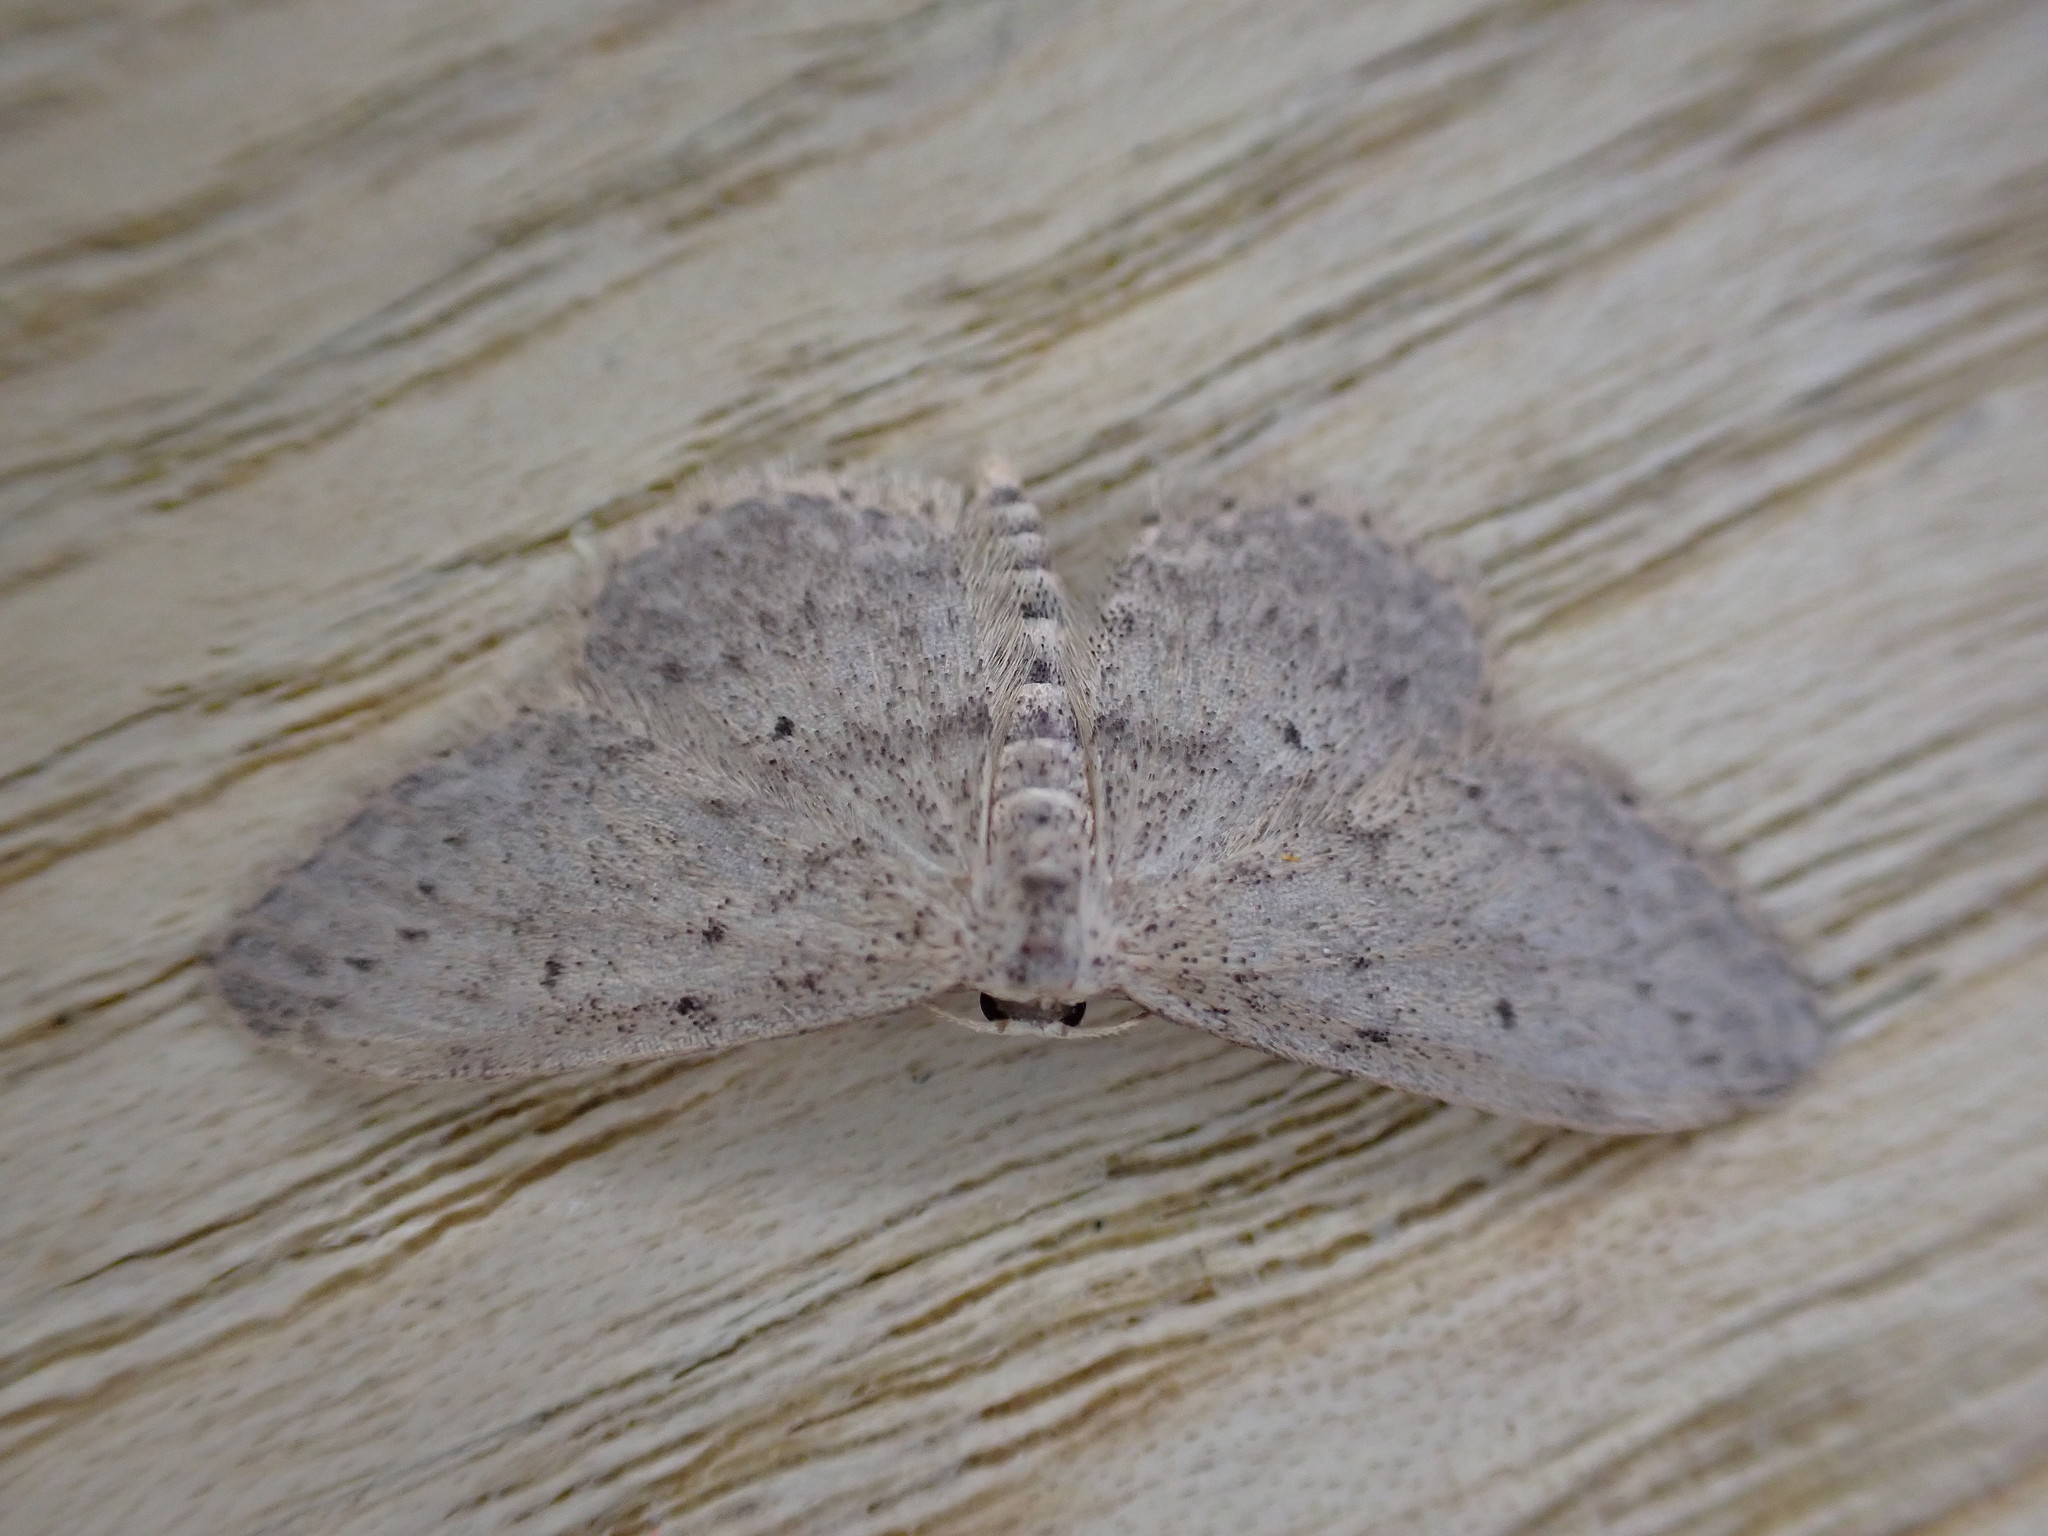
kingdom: Animalia
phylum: Arthropoda
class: Insecta
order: Lepidoptera
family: Geometridae
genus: Idaea
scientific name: Idaea seriata
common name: Small dusty wave
